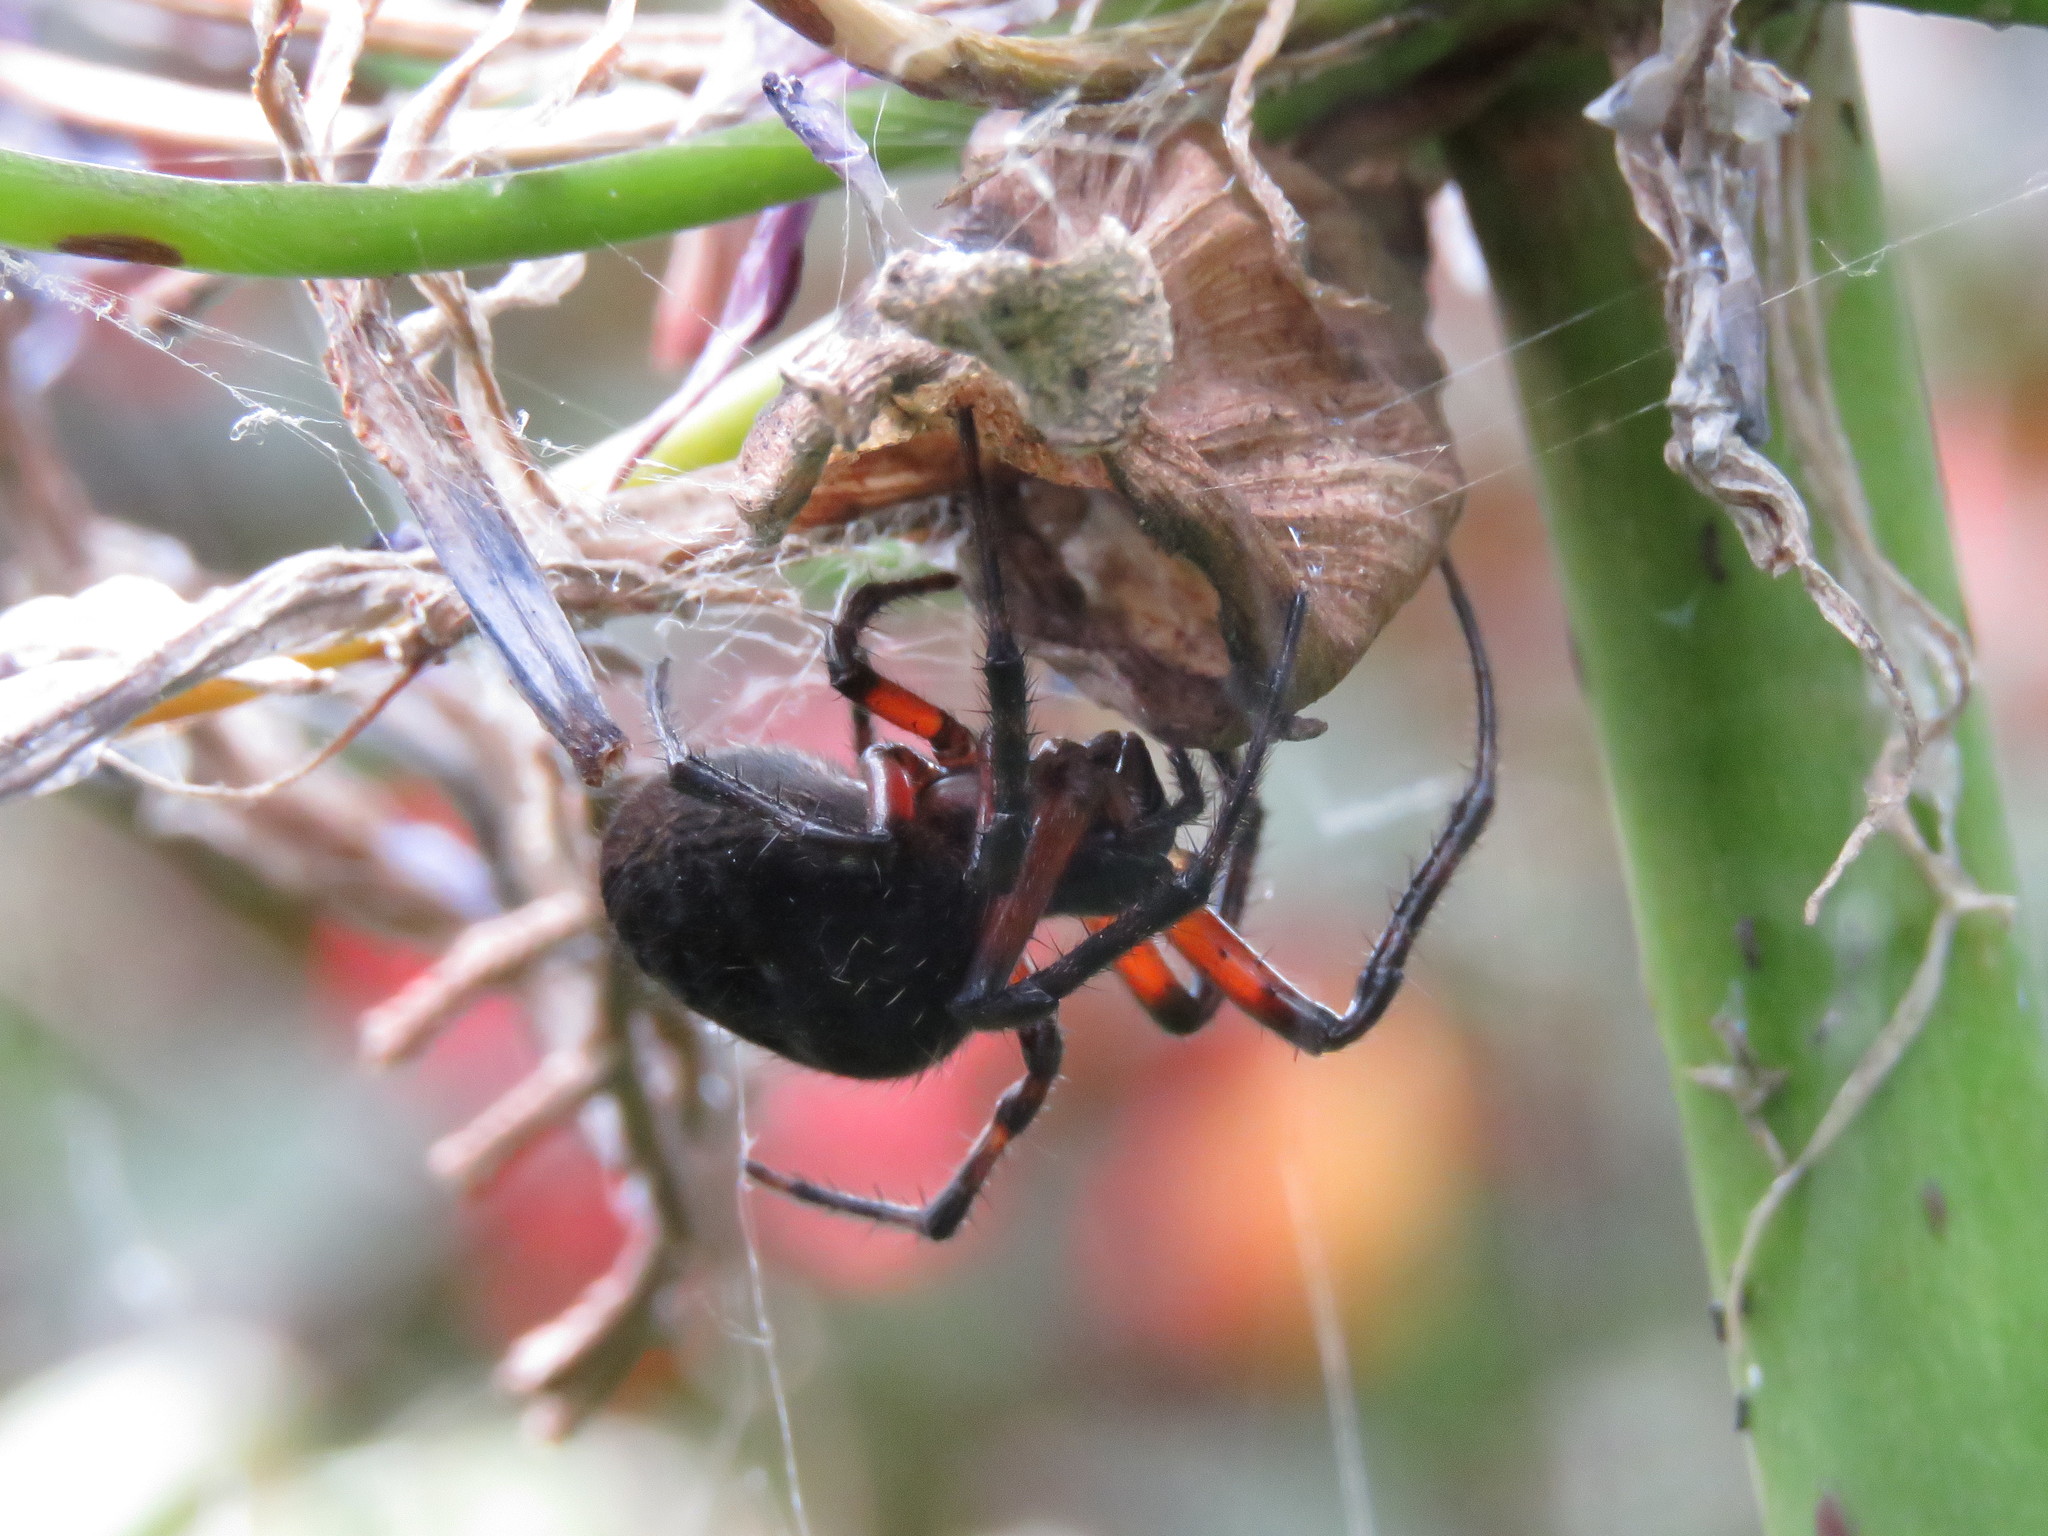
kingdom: Animalia
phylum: Arthropoda
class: Arachnida
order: Araneae
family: Araneidae
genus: Araneus
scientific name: Araneus granadensis
